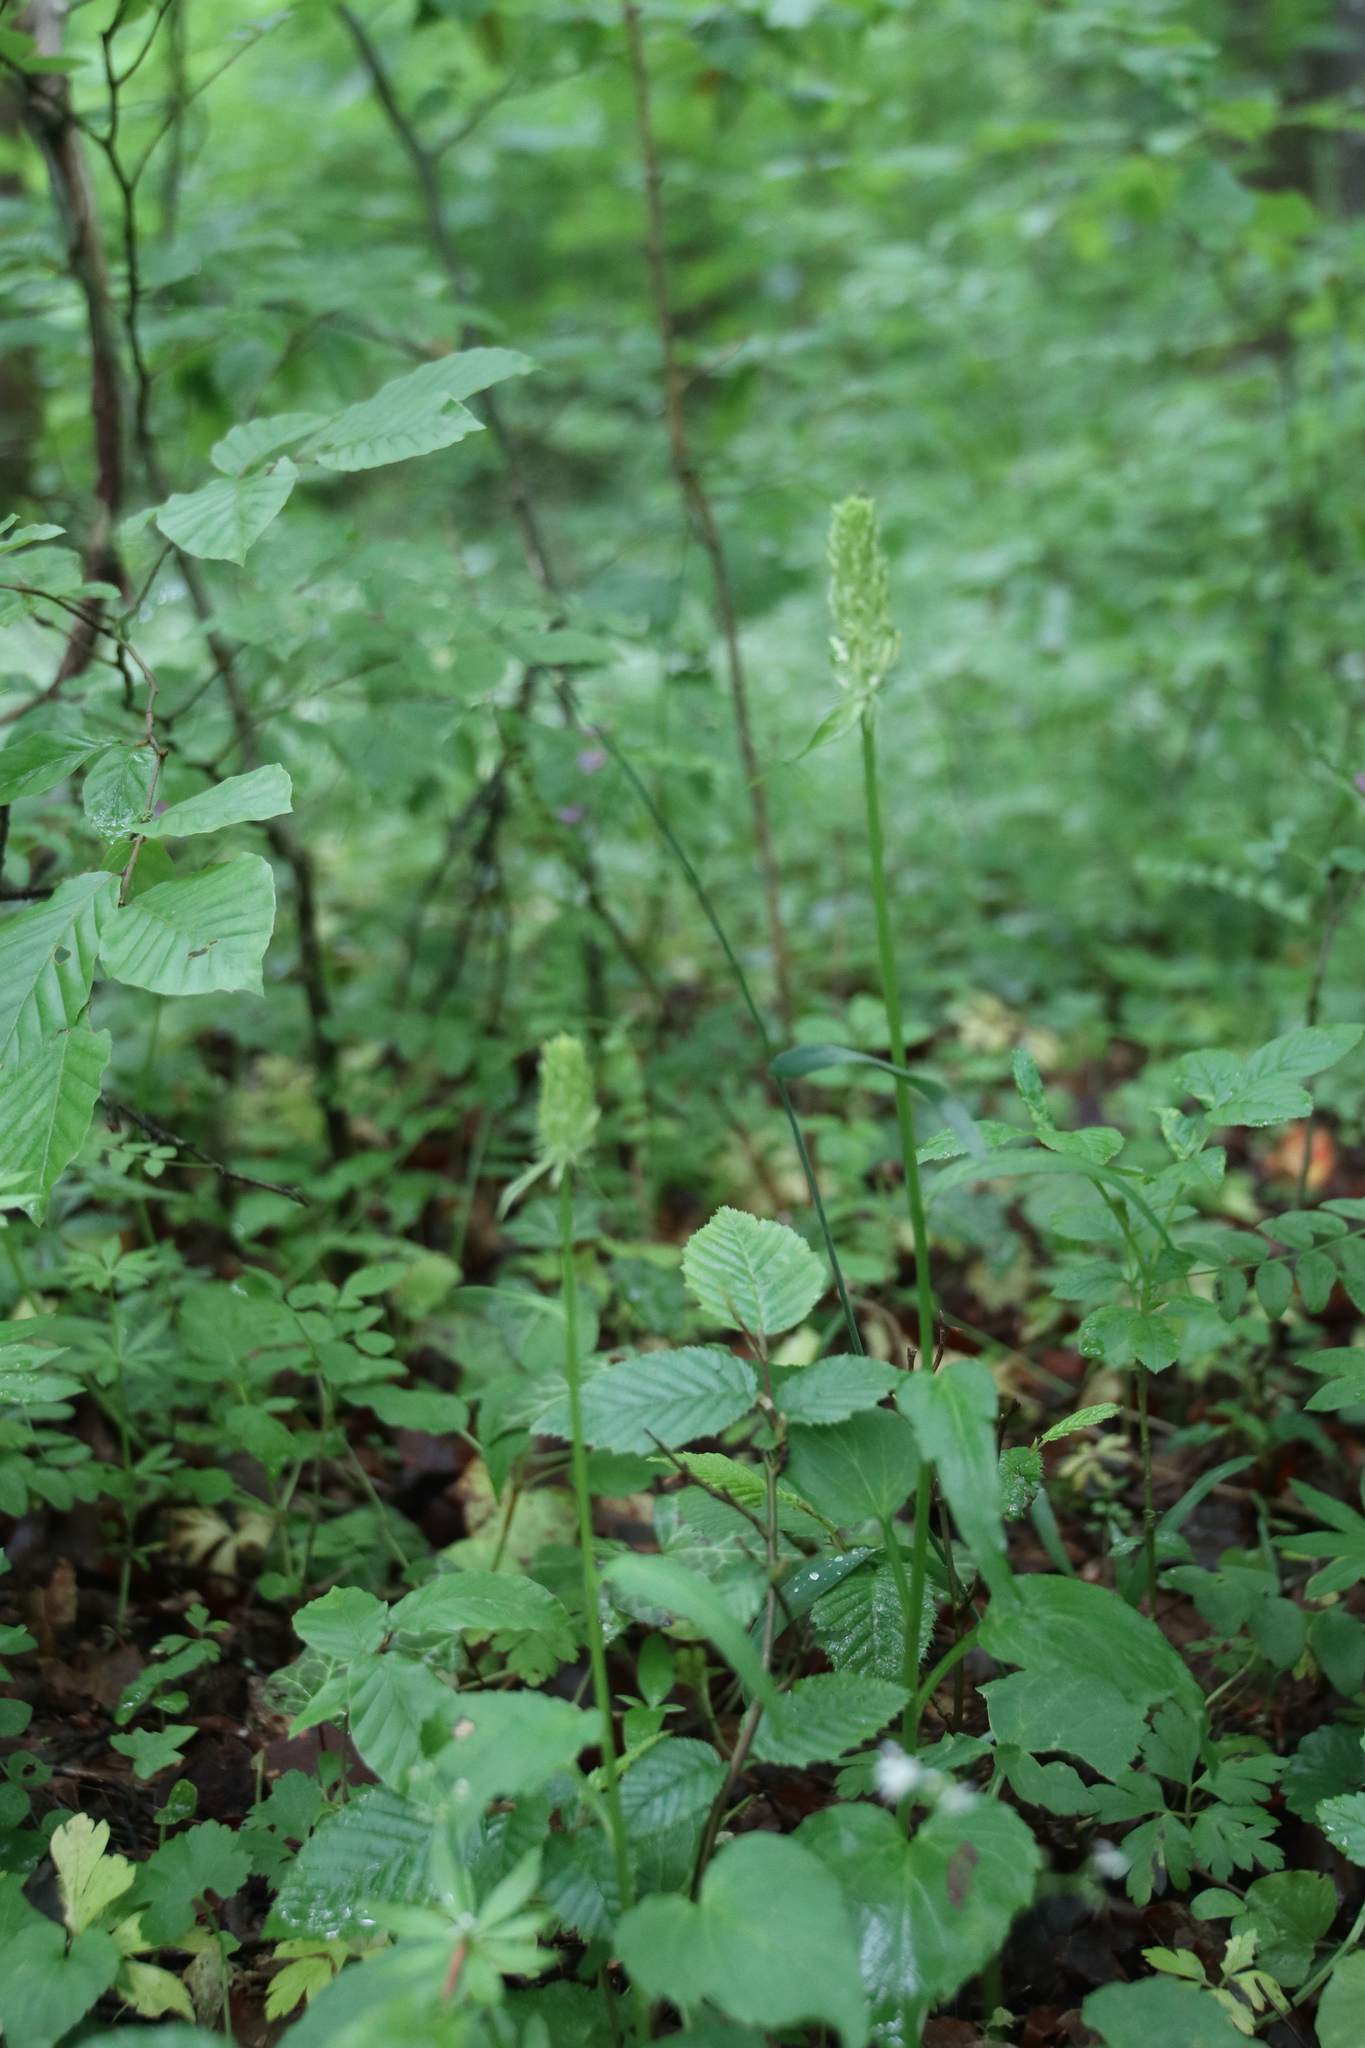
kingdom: Plantae
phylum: Tracheophyta
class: Magnoliopsida
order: Asterales
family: Campanulaceae
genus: Phyteuma
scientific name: Phyteuma spicatum
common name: Spiked rampion
